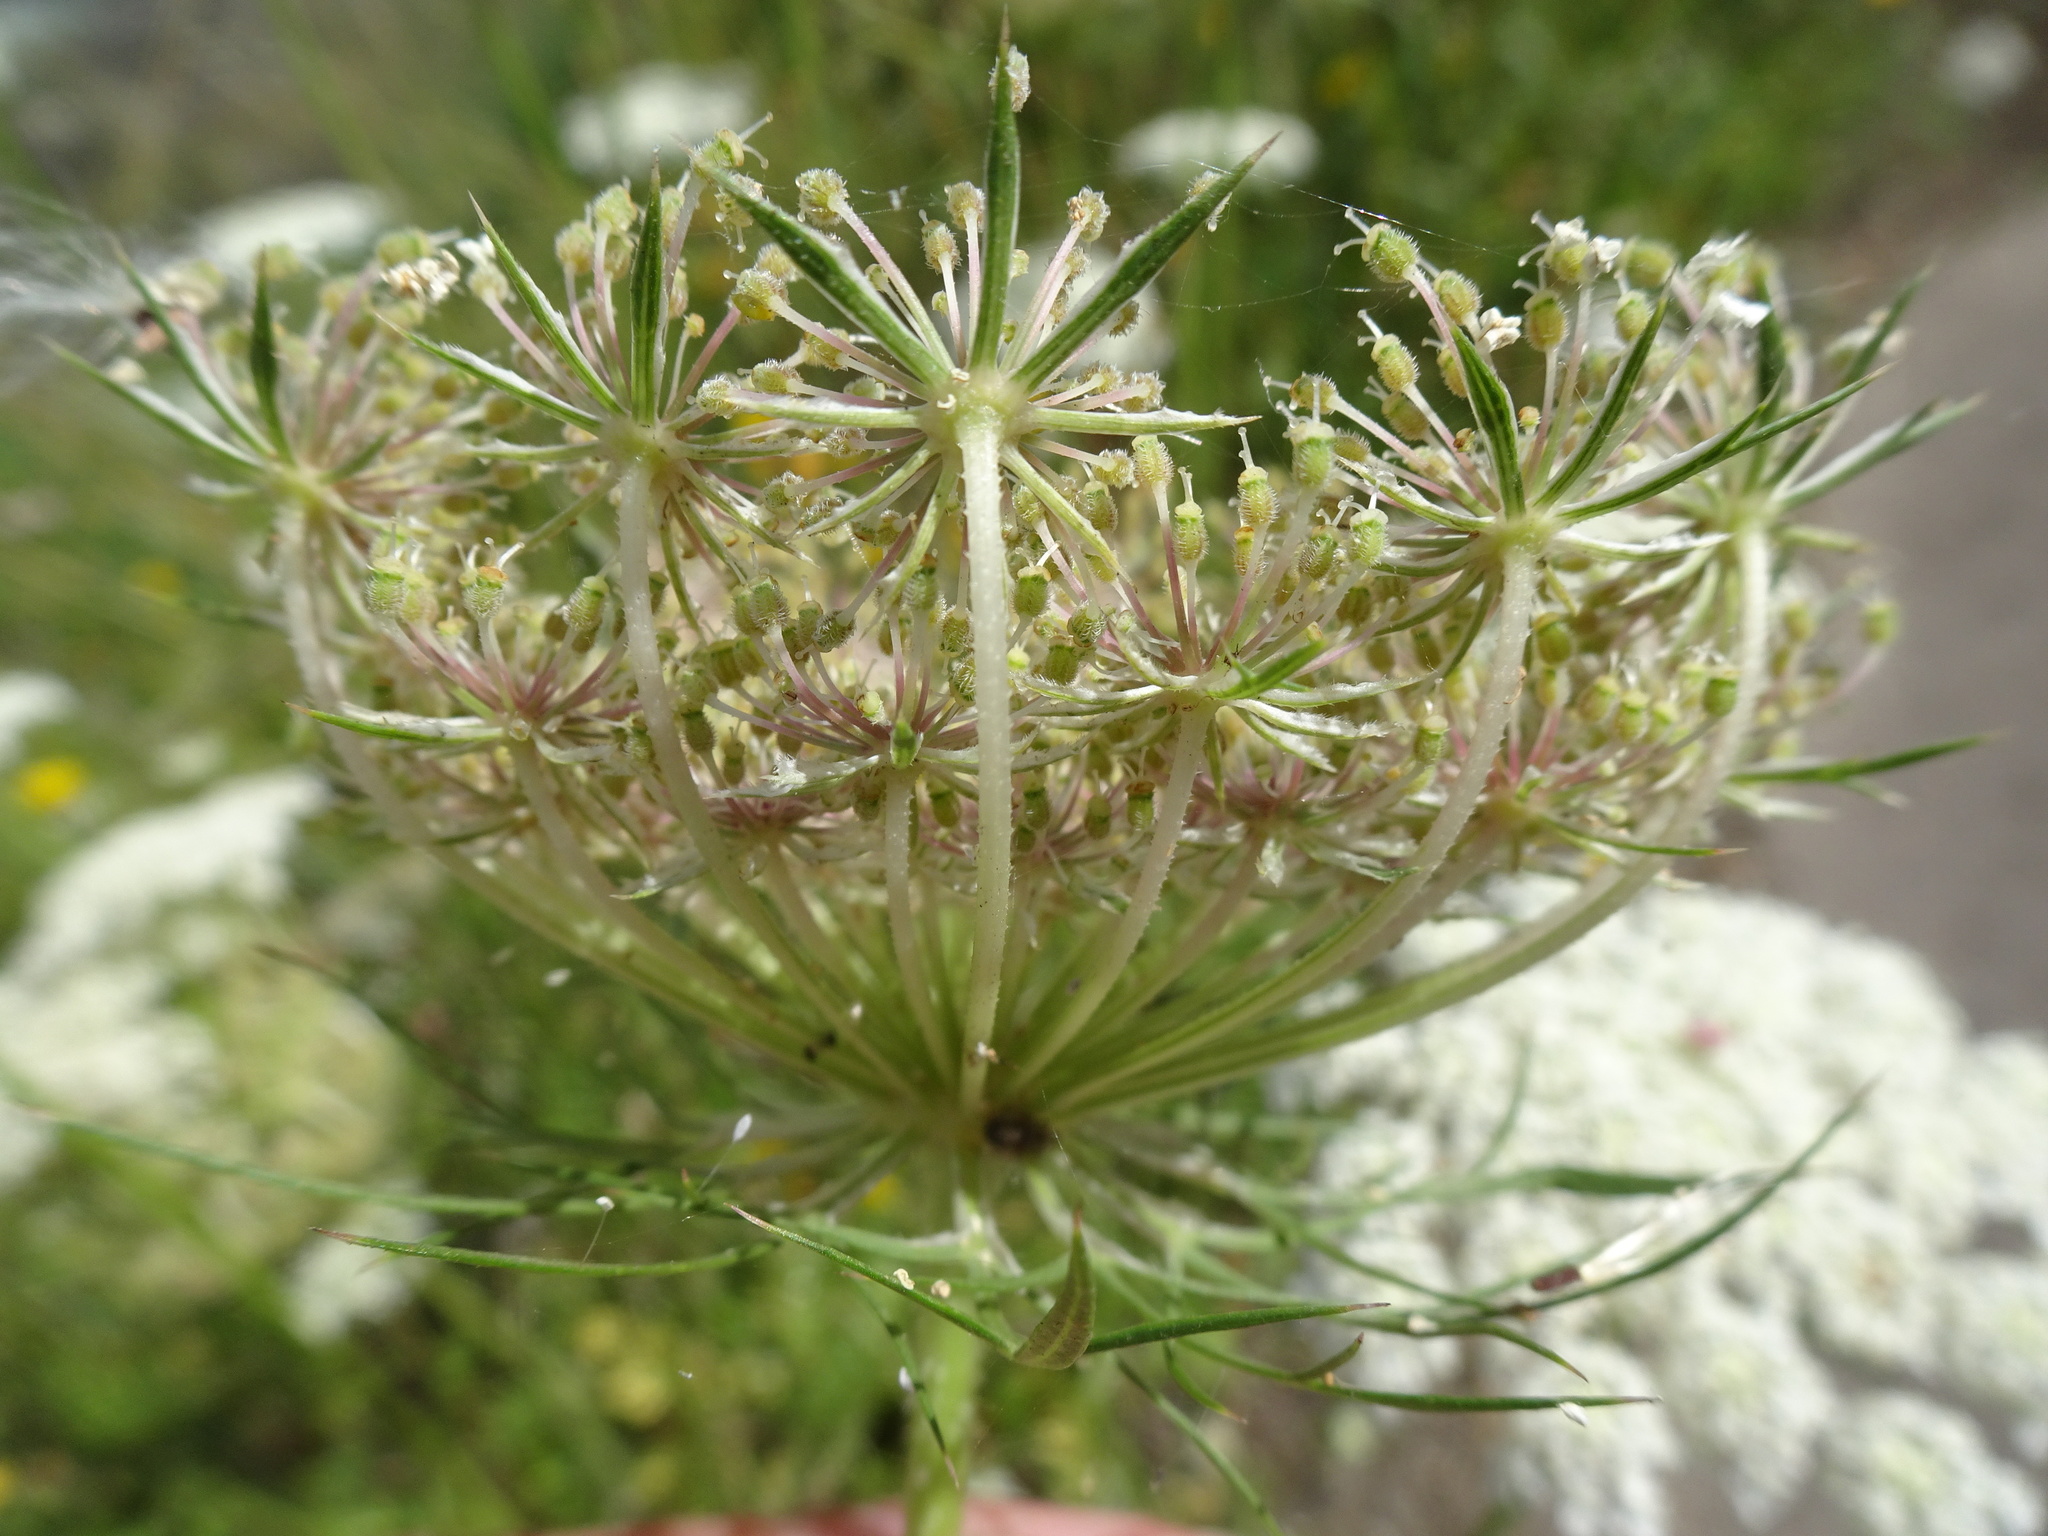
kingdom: Plantae
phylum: Tracheophyta
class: Magnoliopsida
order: Apiales
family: Apiaceae
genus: Daucus
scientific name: Daucus carota
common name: Wild carrot
